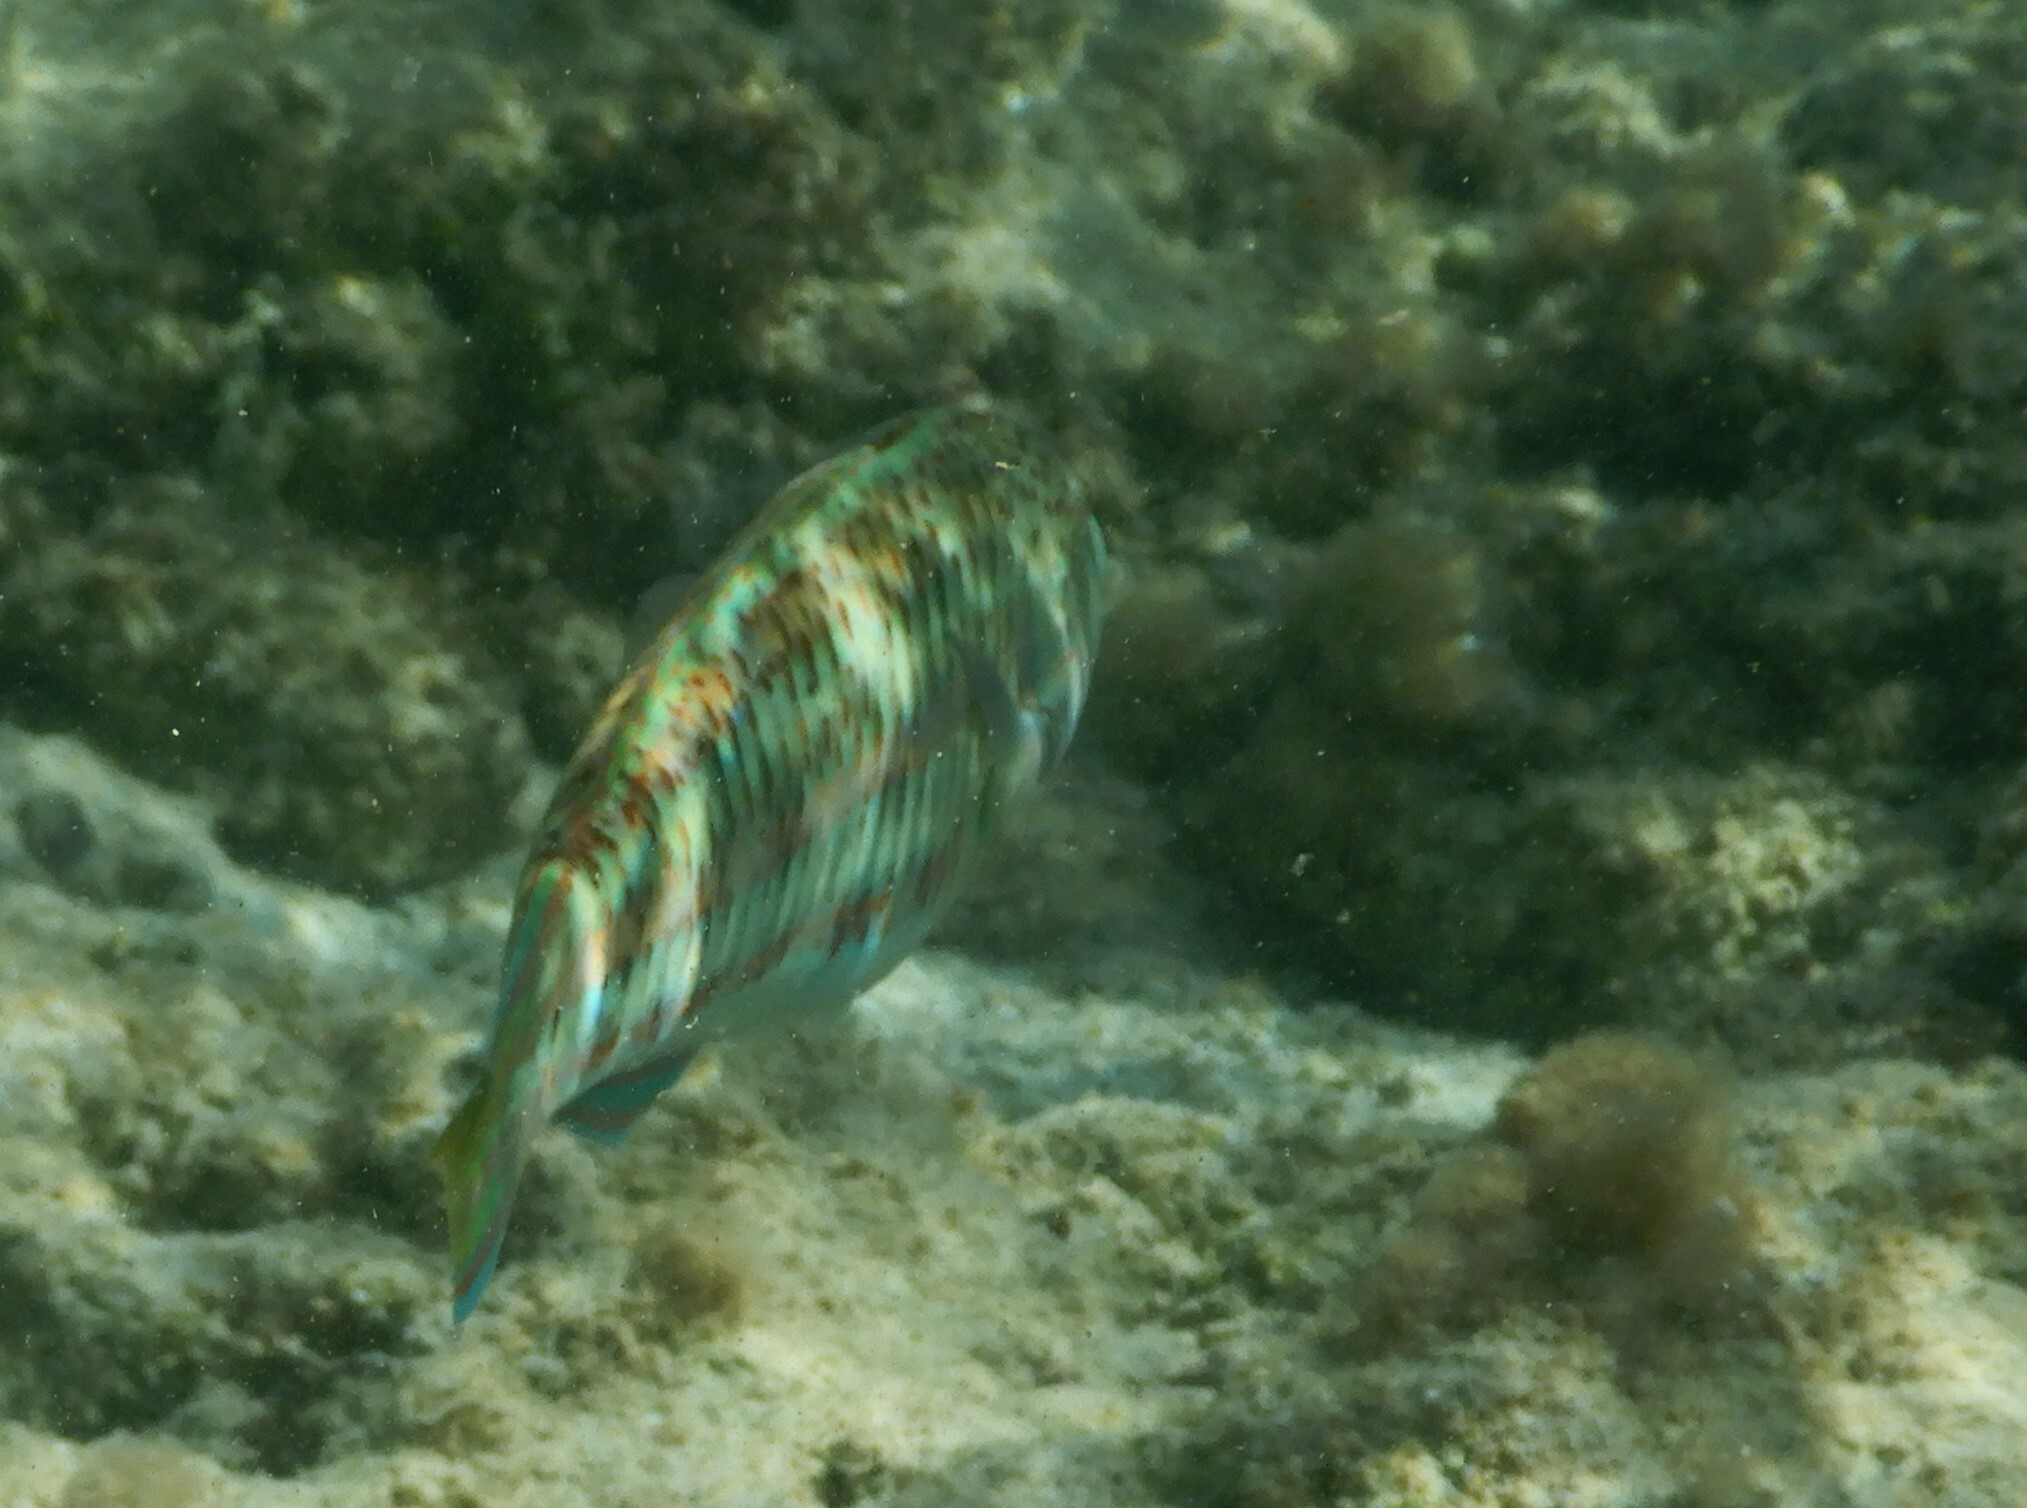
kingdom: Animalia
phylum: Chordata
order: Perciformes
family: Labridae
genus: Thalassoma
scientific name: Thalassoma purpureum
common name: Parrotfish
